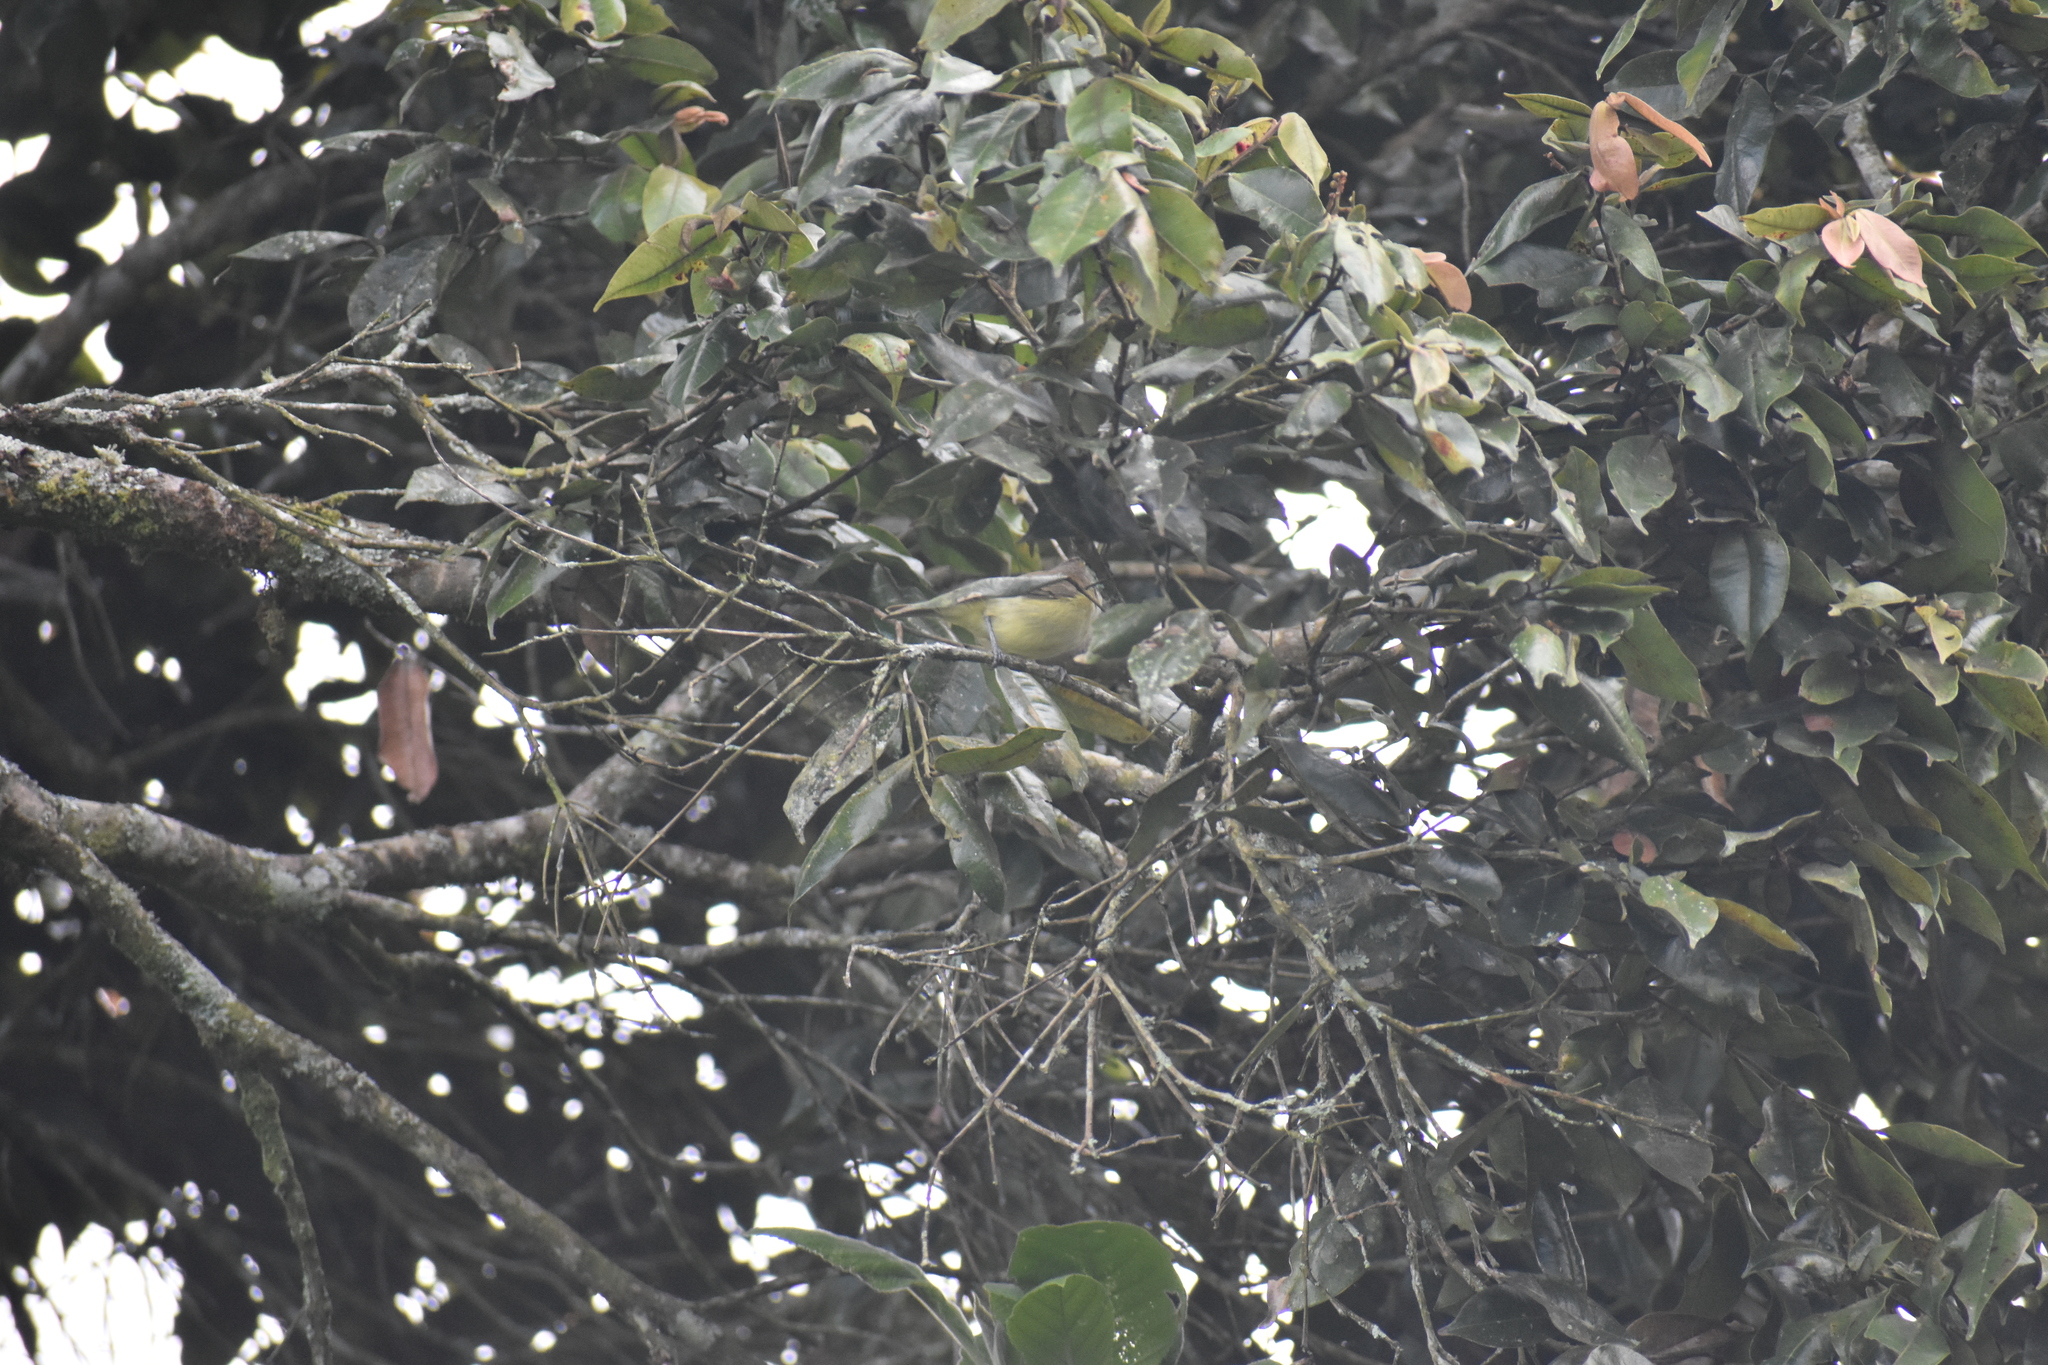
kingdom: Animalia
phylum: Chordata
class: Aves
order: Passeriformes
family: Vireonidae
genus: Vireo
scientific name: Vireo leucophrys
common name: Brown-capped vireo
